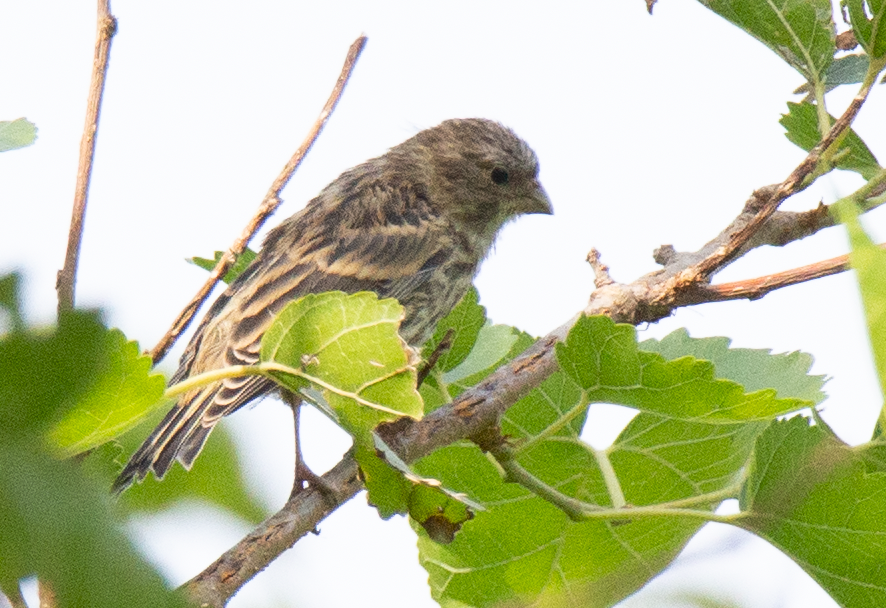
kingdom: Animalia
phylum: Chordata
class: Aves
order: Passeriformes
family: Fringillidae
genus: Serinus
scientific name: Serinus serinus
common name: European serin
